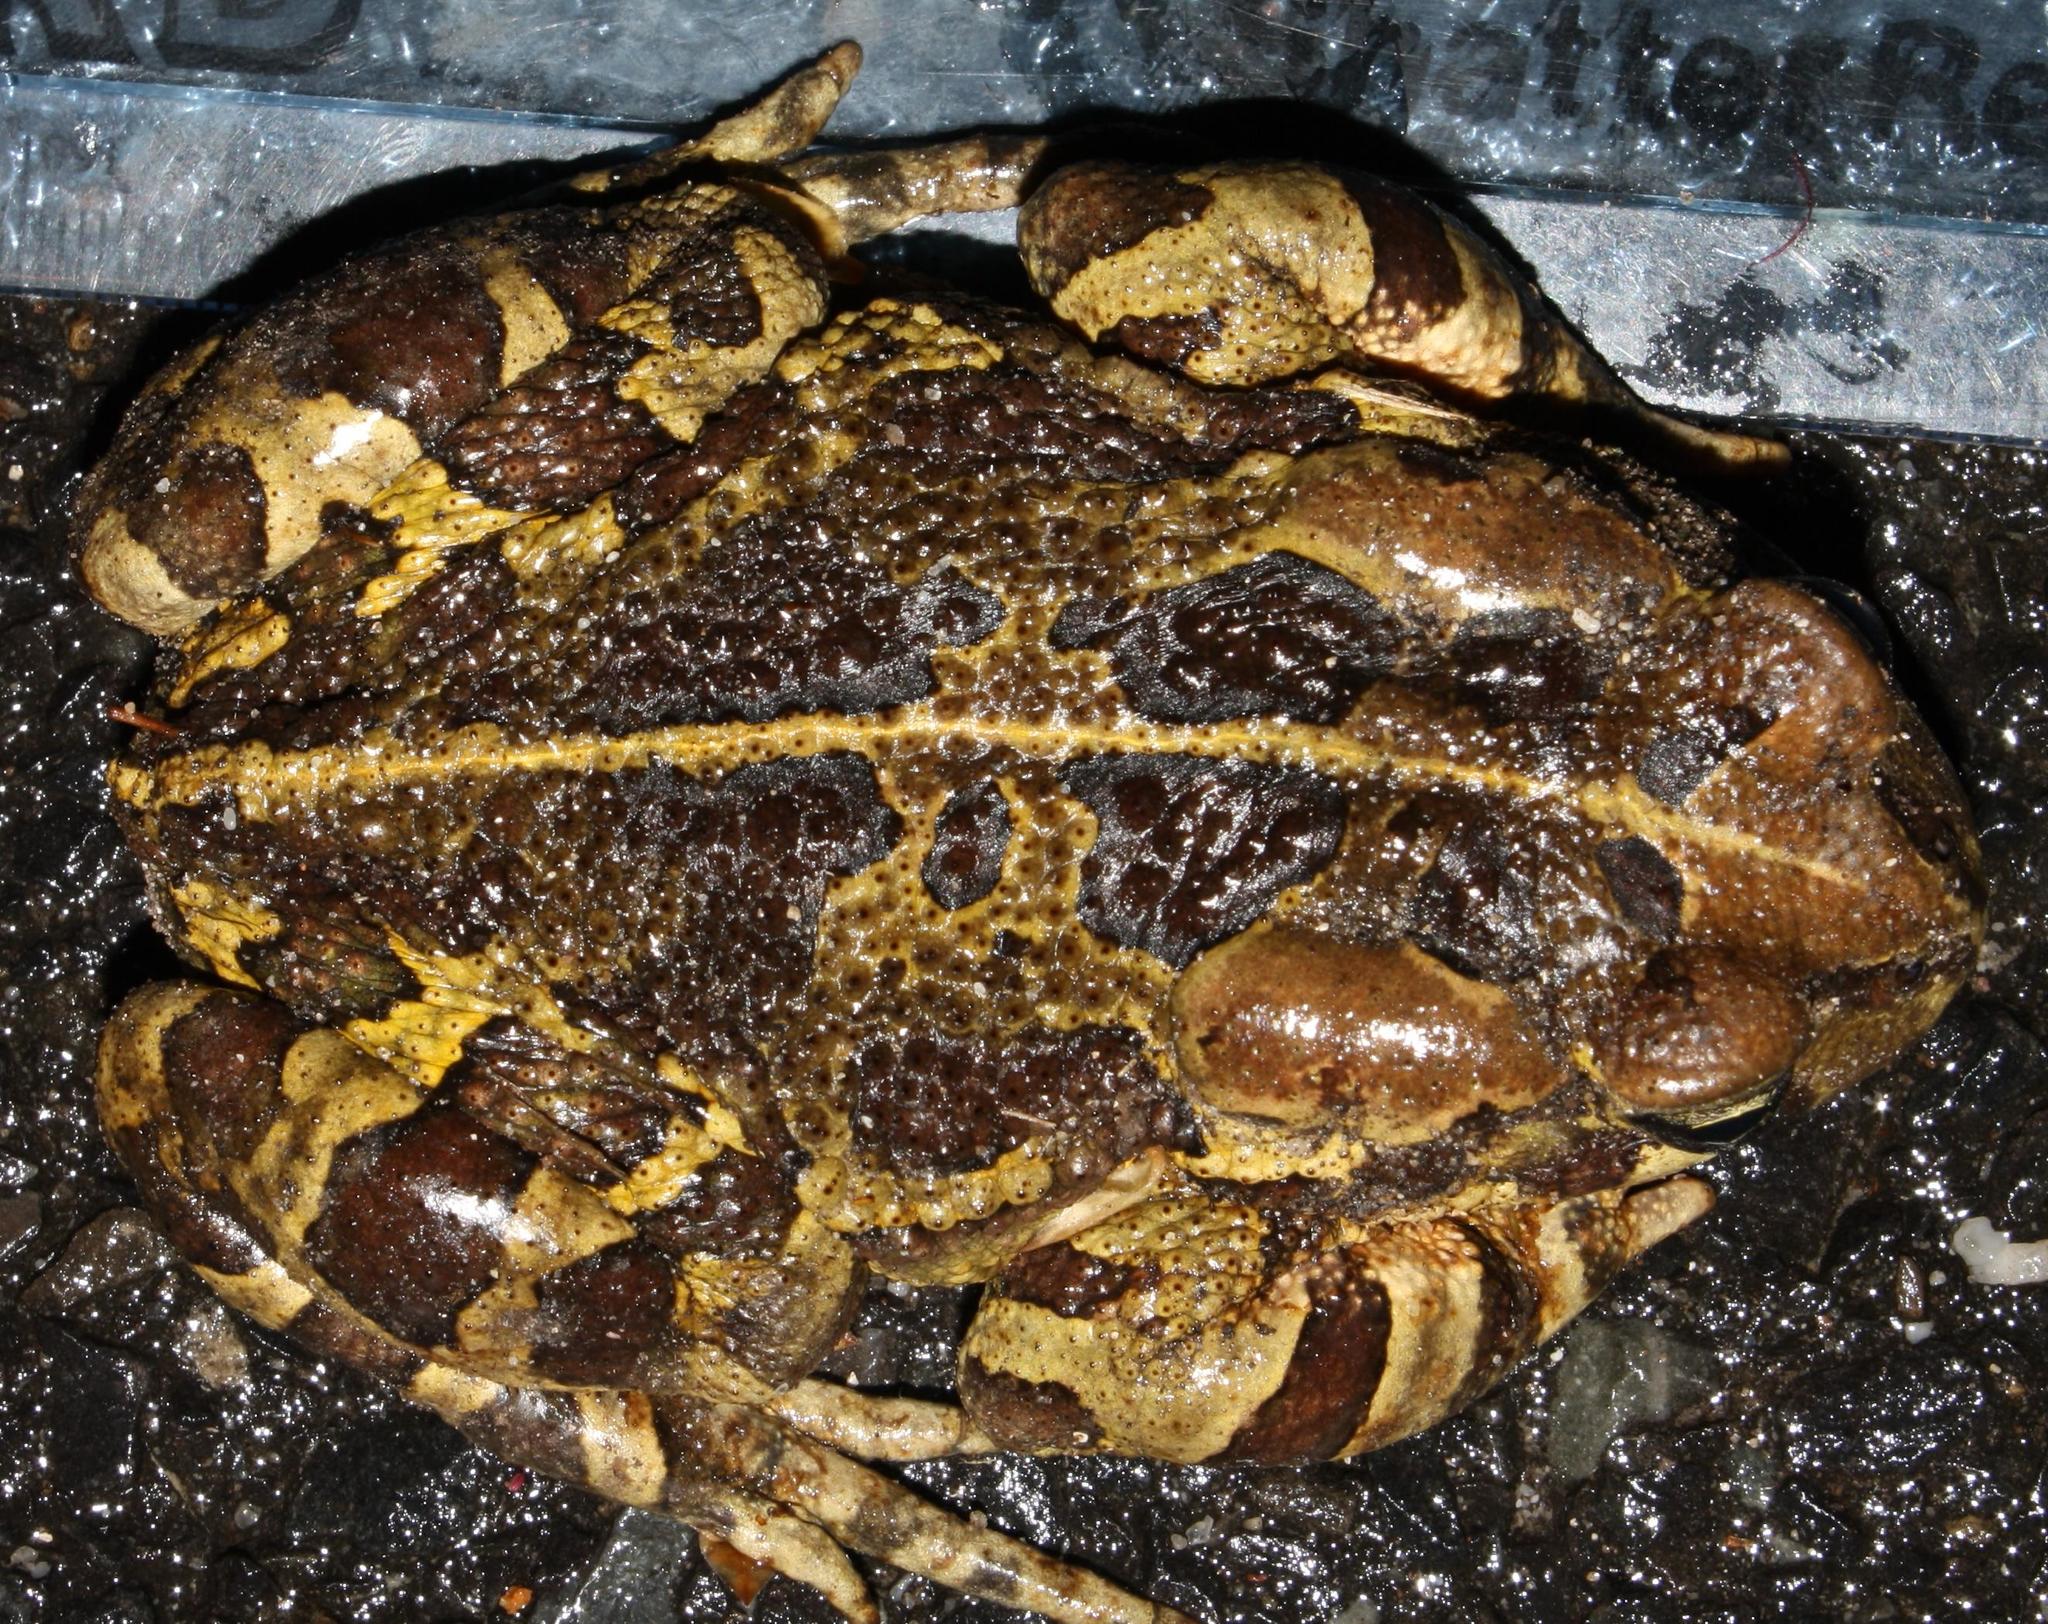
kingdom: Animalia
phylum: Chordata
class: Amphibia
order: Anura
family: Bufonidae
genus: Sclerophrys
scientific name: Sclerophrys pantherina
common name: Panther toad
